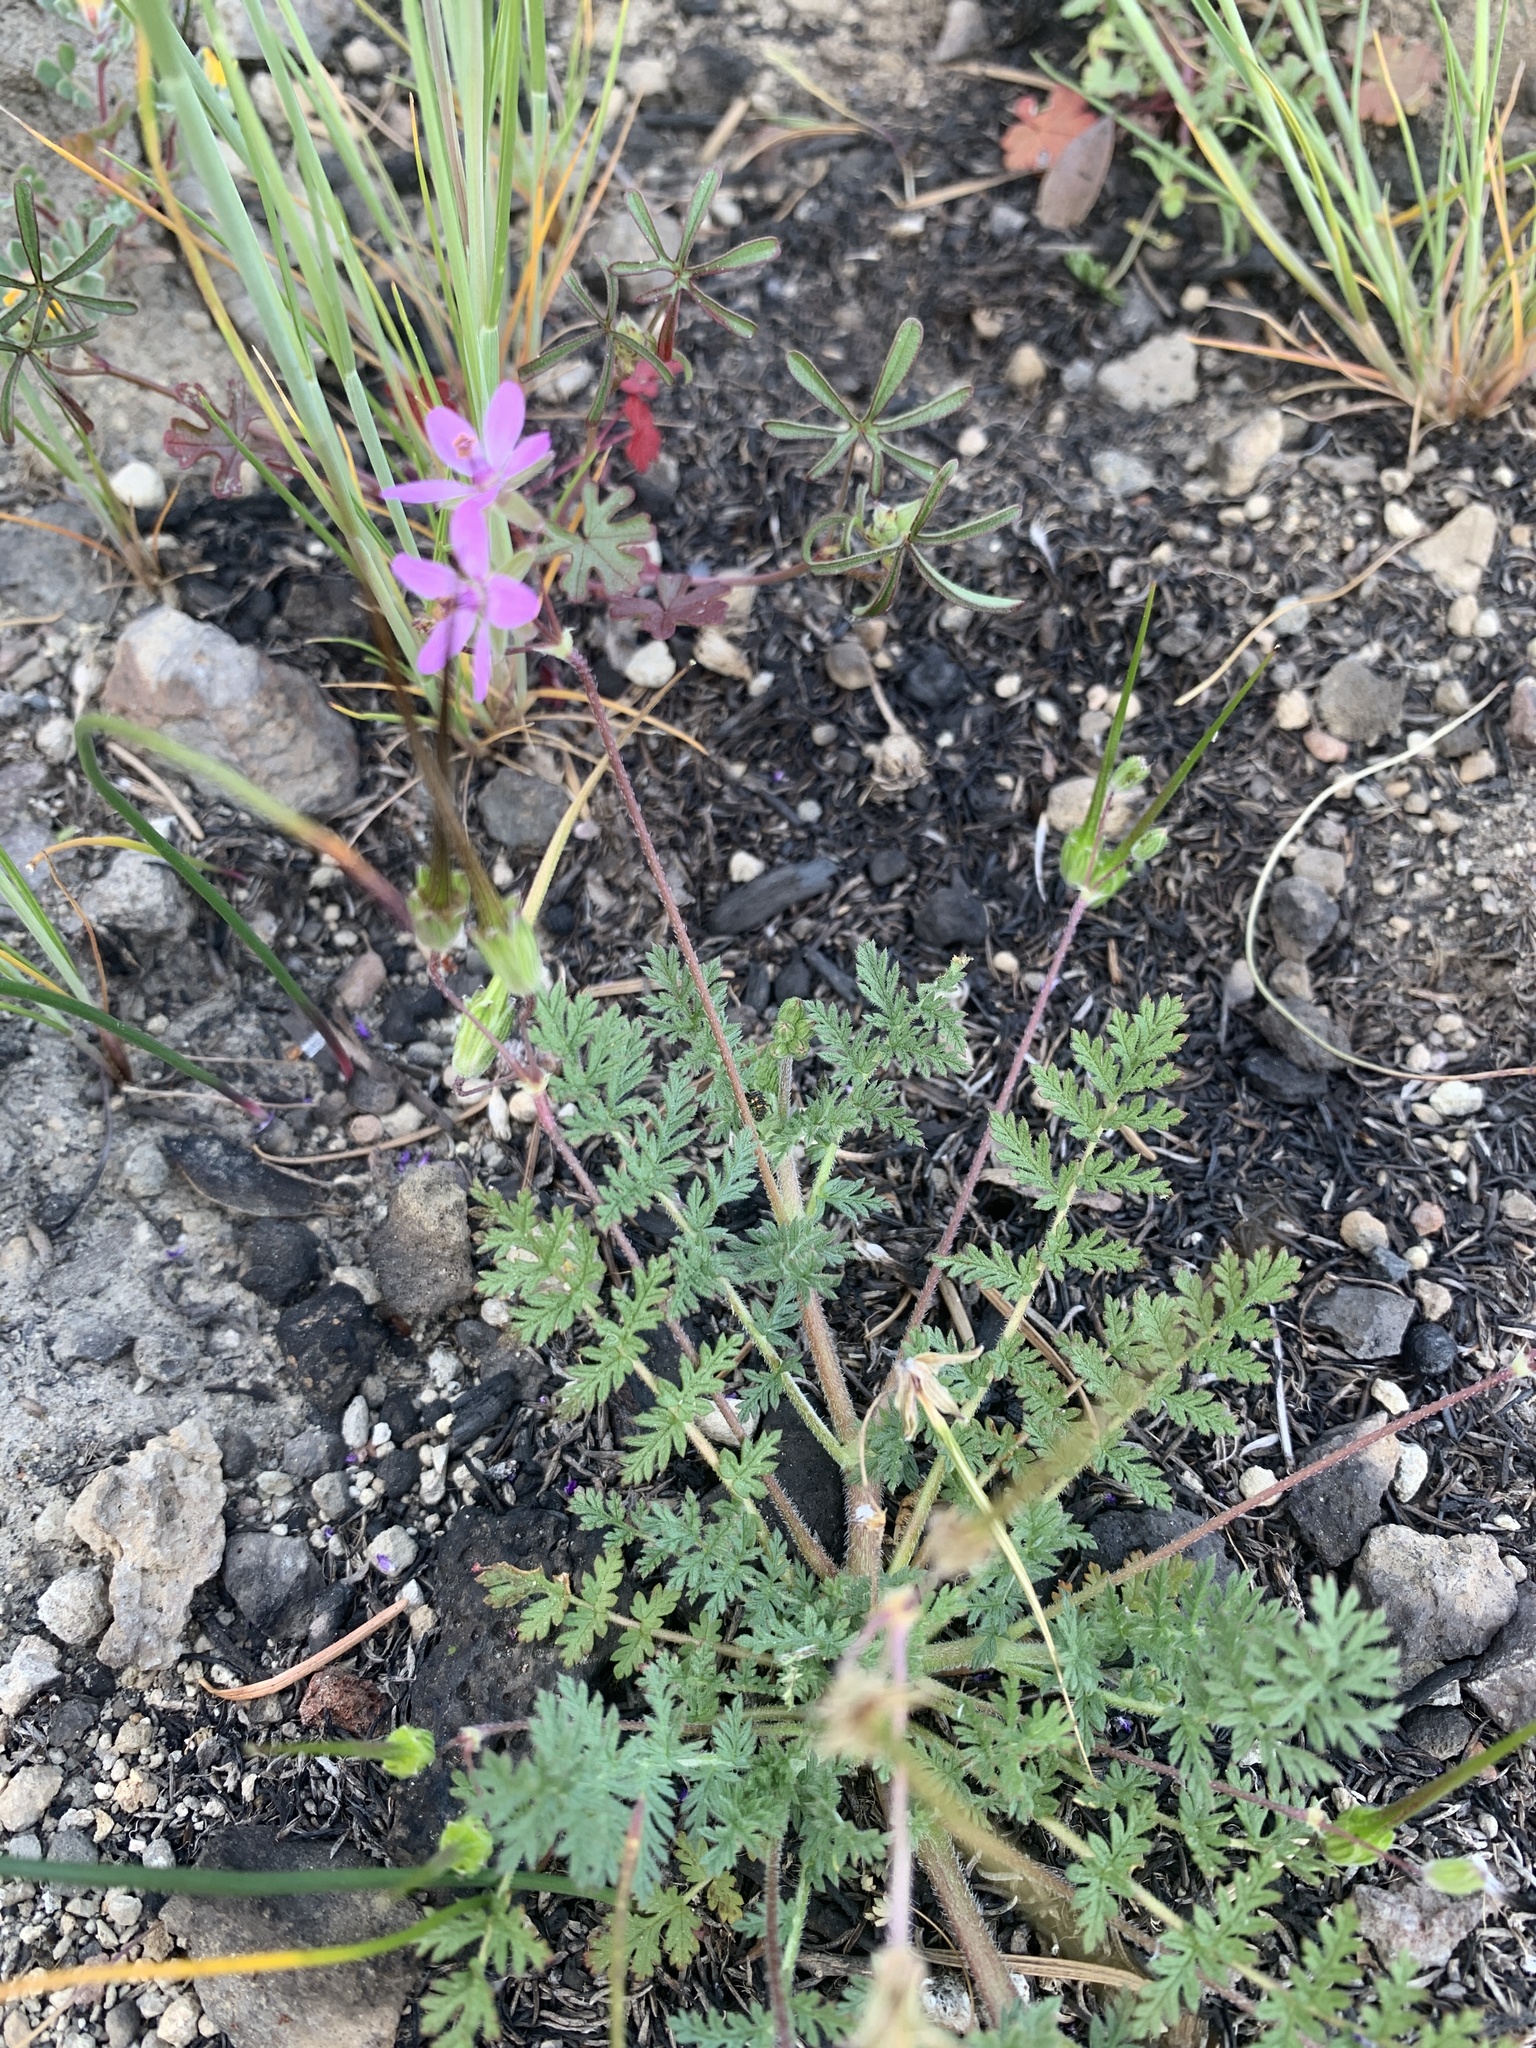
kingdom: Plantae
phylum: Tracheophyta
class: Magnoliopsida
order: Geraniales
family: Geraniaceae
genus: Erodium
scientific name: Erodium cicutarium
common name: Common stork's-bill
